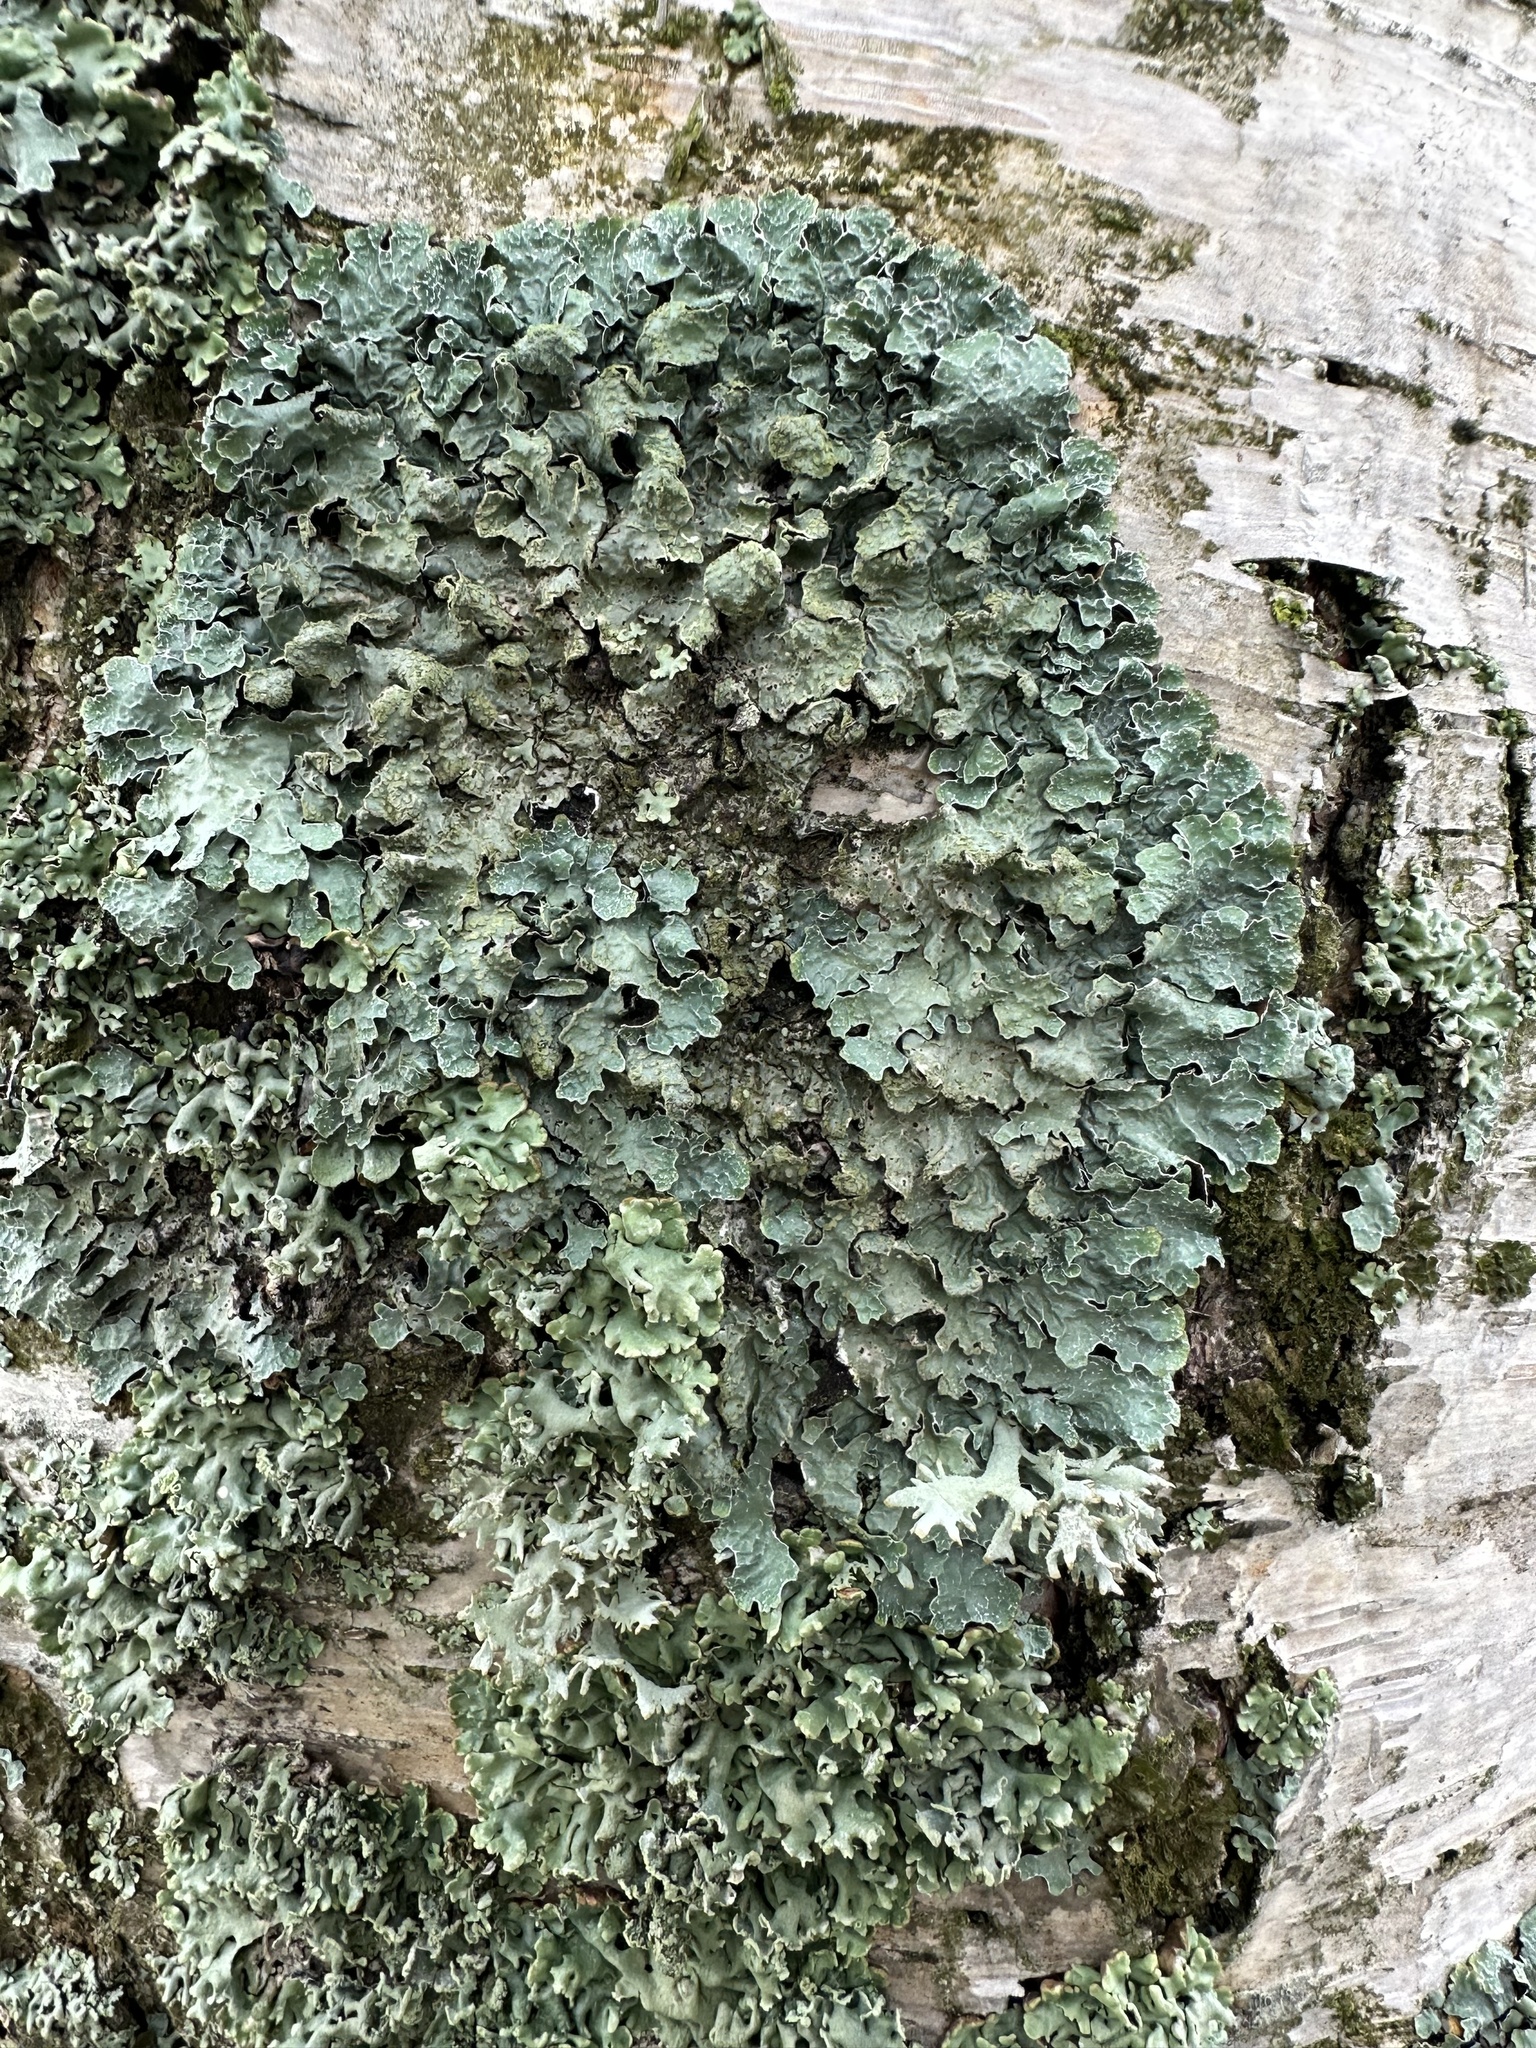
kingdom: Fungi
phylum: Ascomycota
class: Lecanoromycetes
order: Lecanorales
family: Parmeliaceae
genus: Parmelia
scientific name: Parmelia sulcata
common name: Netted shield lichen
